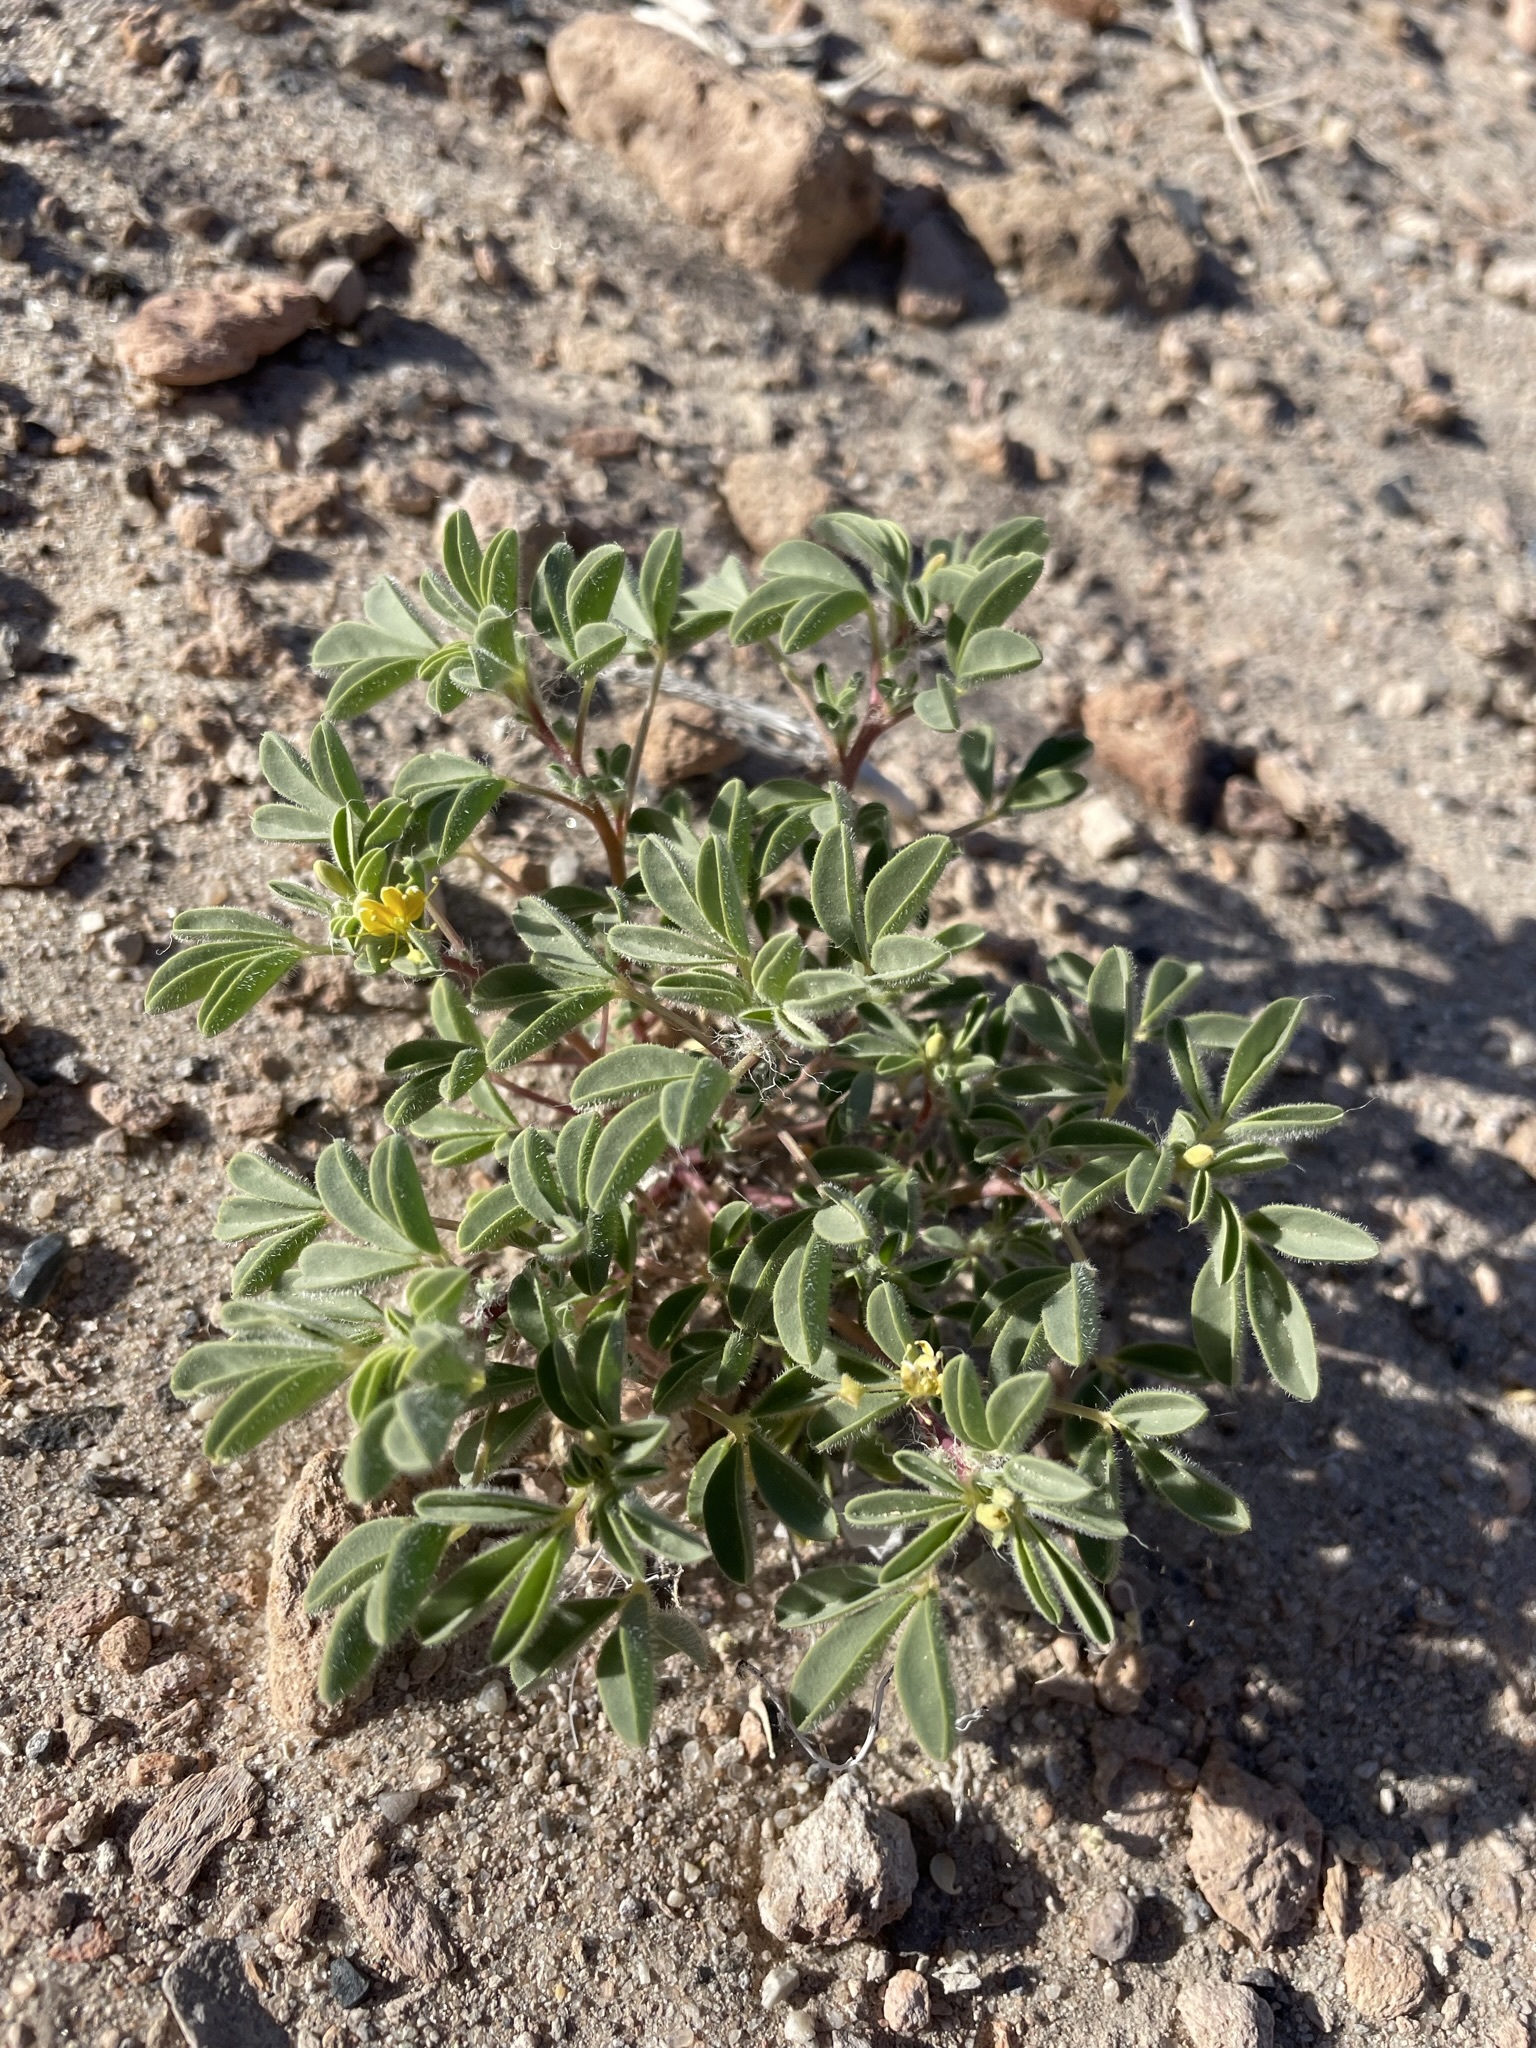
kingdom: Plantae
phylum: Tracheophyta
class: Magnoliopsida
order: Brassicales
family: Cleomaceae
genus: Cleomella
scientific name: Cleomella obtusifolia
